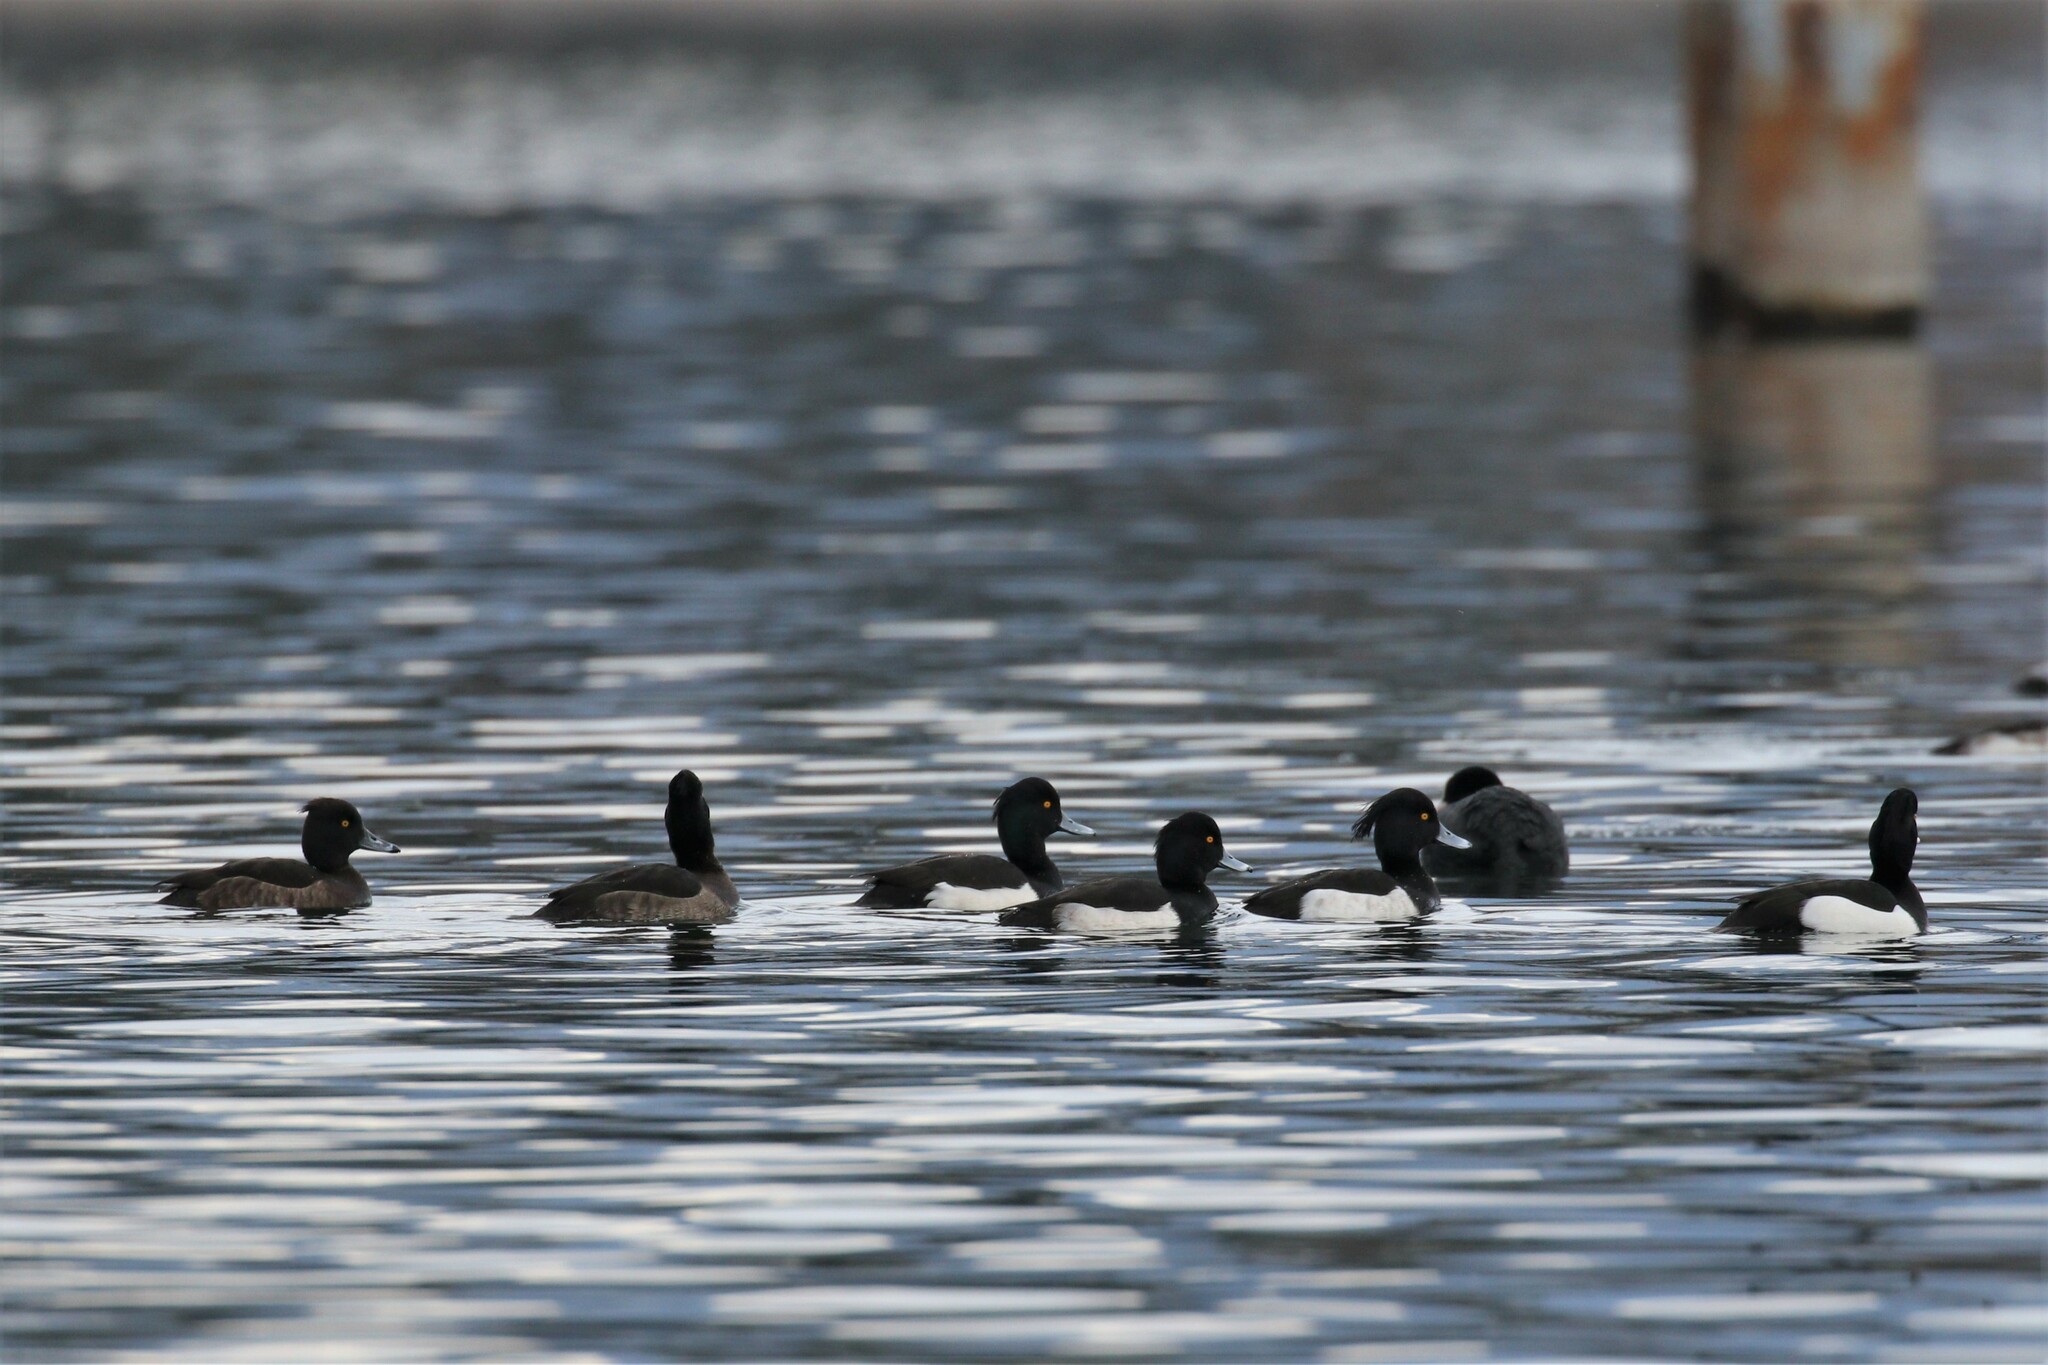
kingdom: Animalia
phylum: Chordata
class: Aves
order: Anseriformes
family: Anatidae
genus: Aythya
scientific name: Aythya fuligula
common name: Tufted duck
